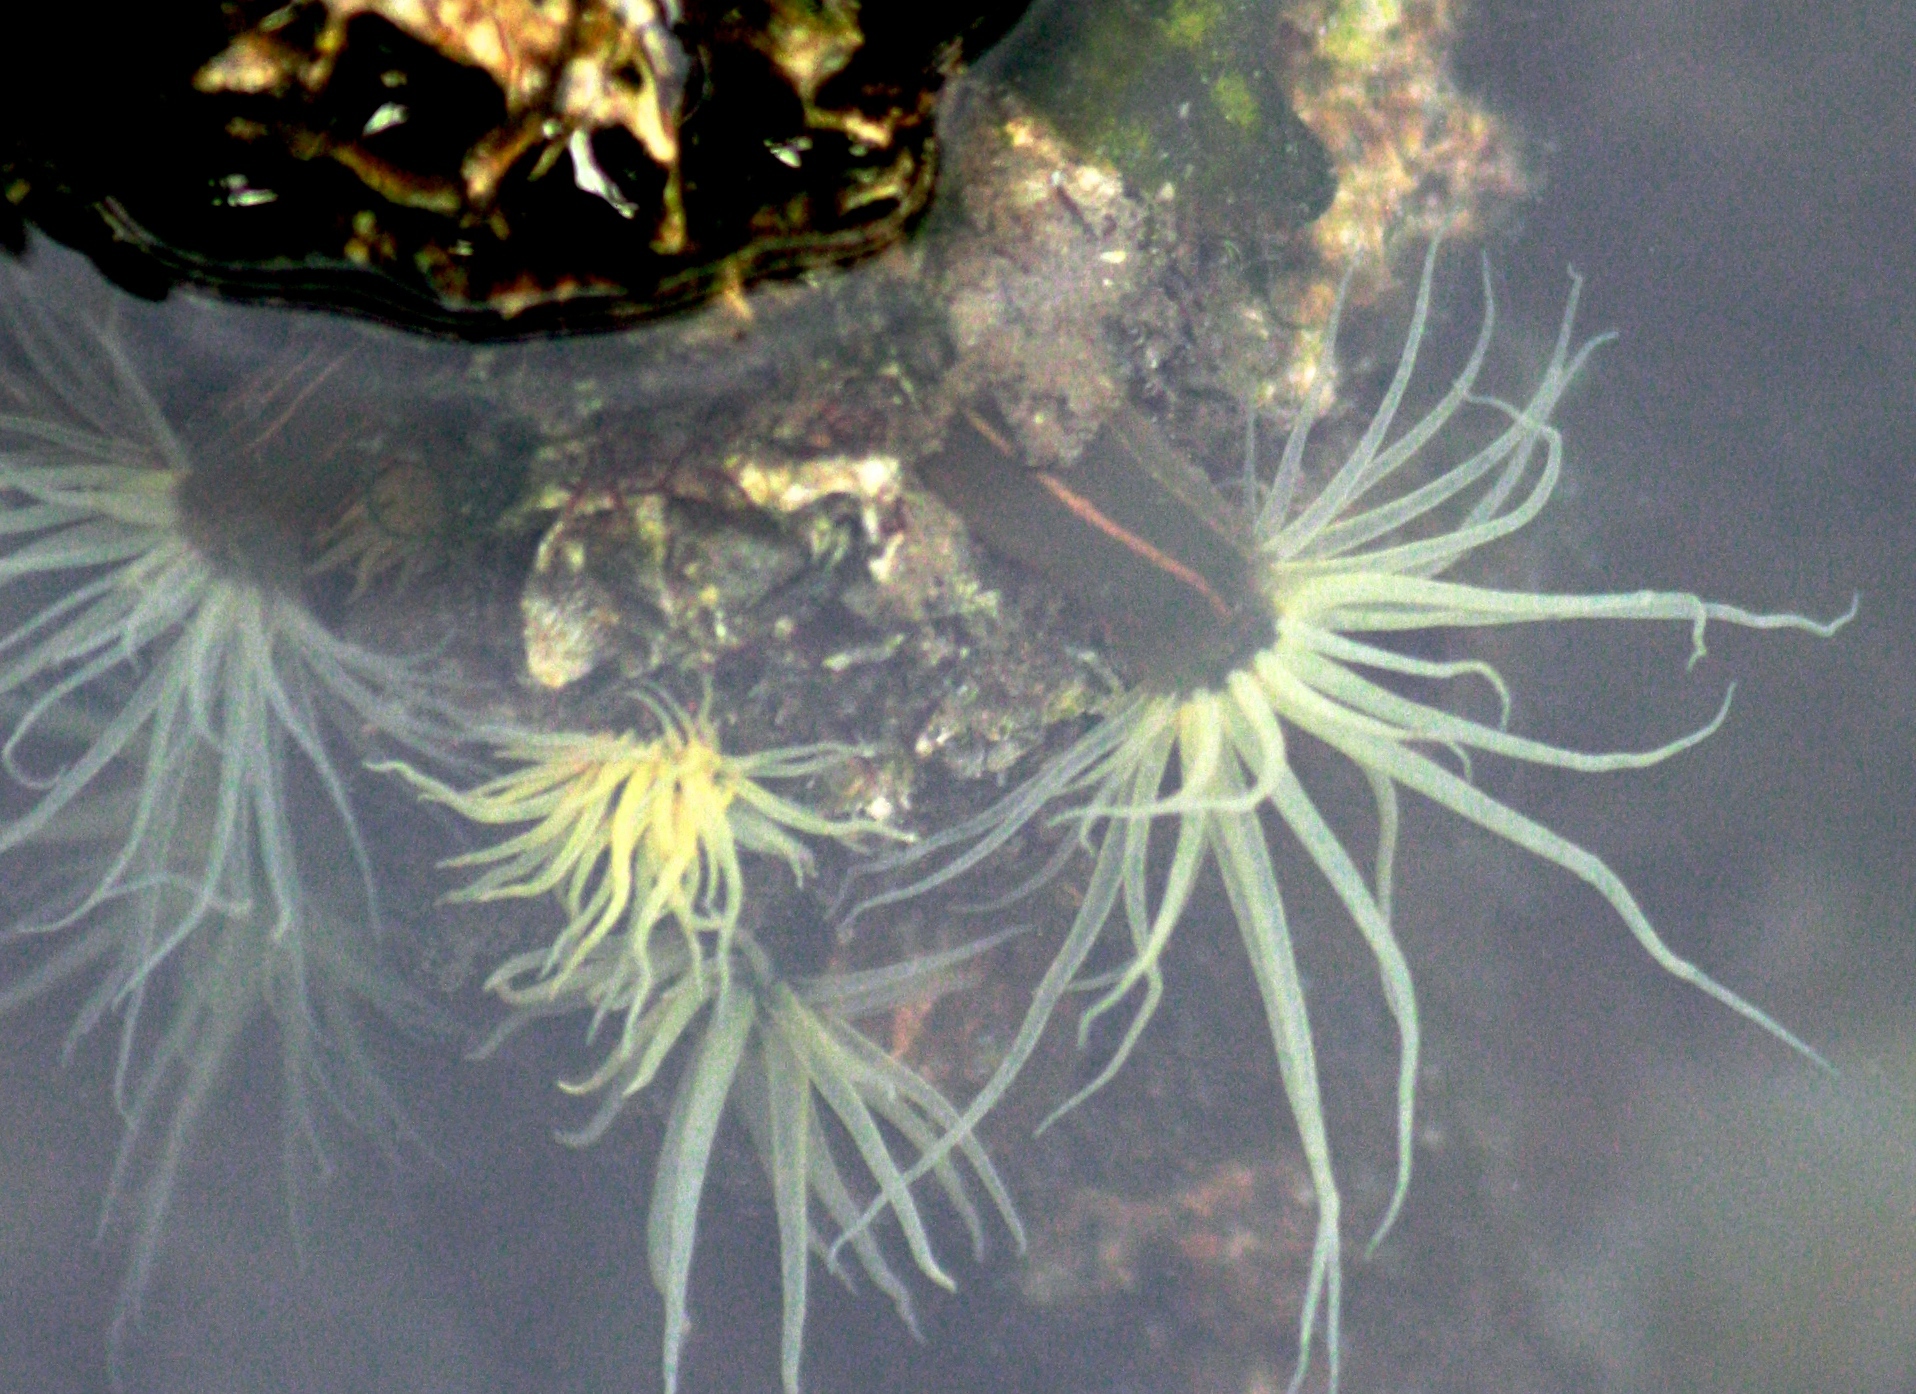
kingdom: Animalia
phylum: Cnidaria
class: Anthozoa
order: Actiniaria
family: Diadumenidae
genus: Diadumene
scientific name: Diadumene lineata
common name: Orange-striped anemone
